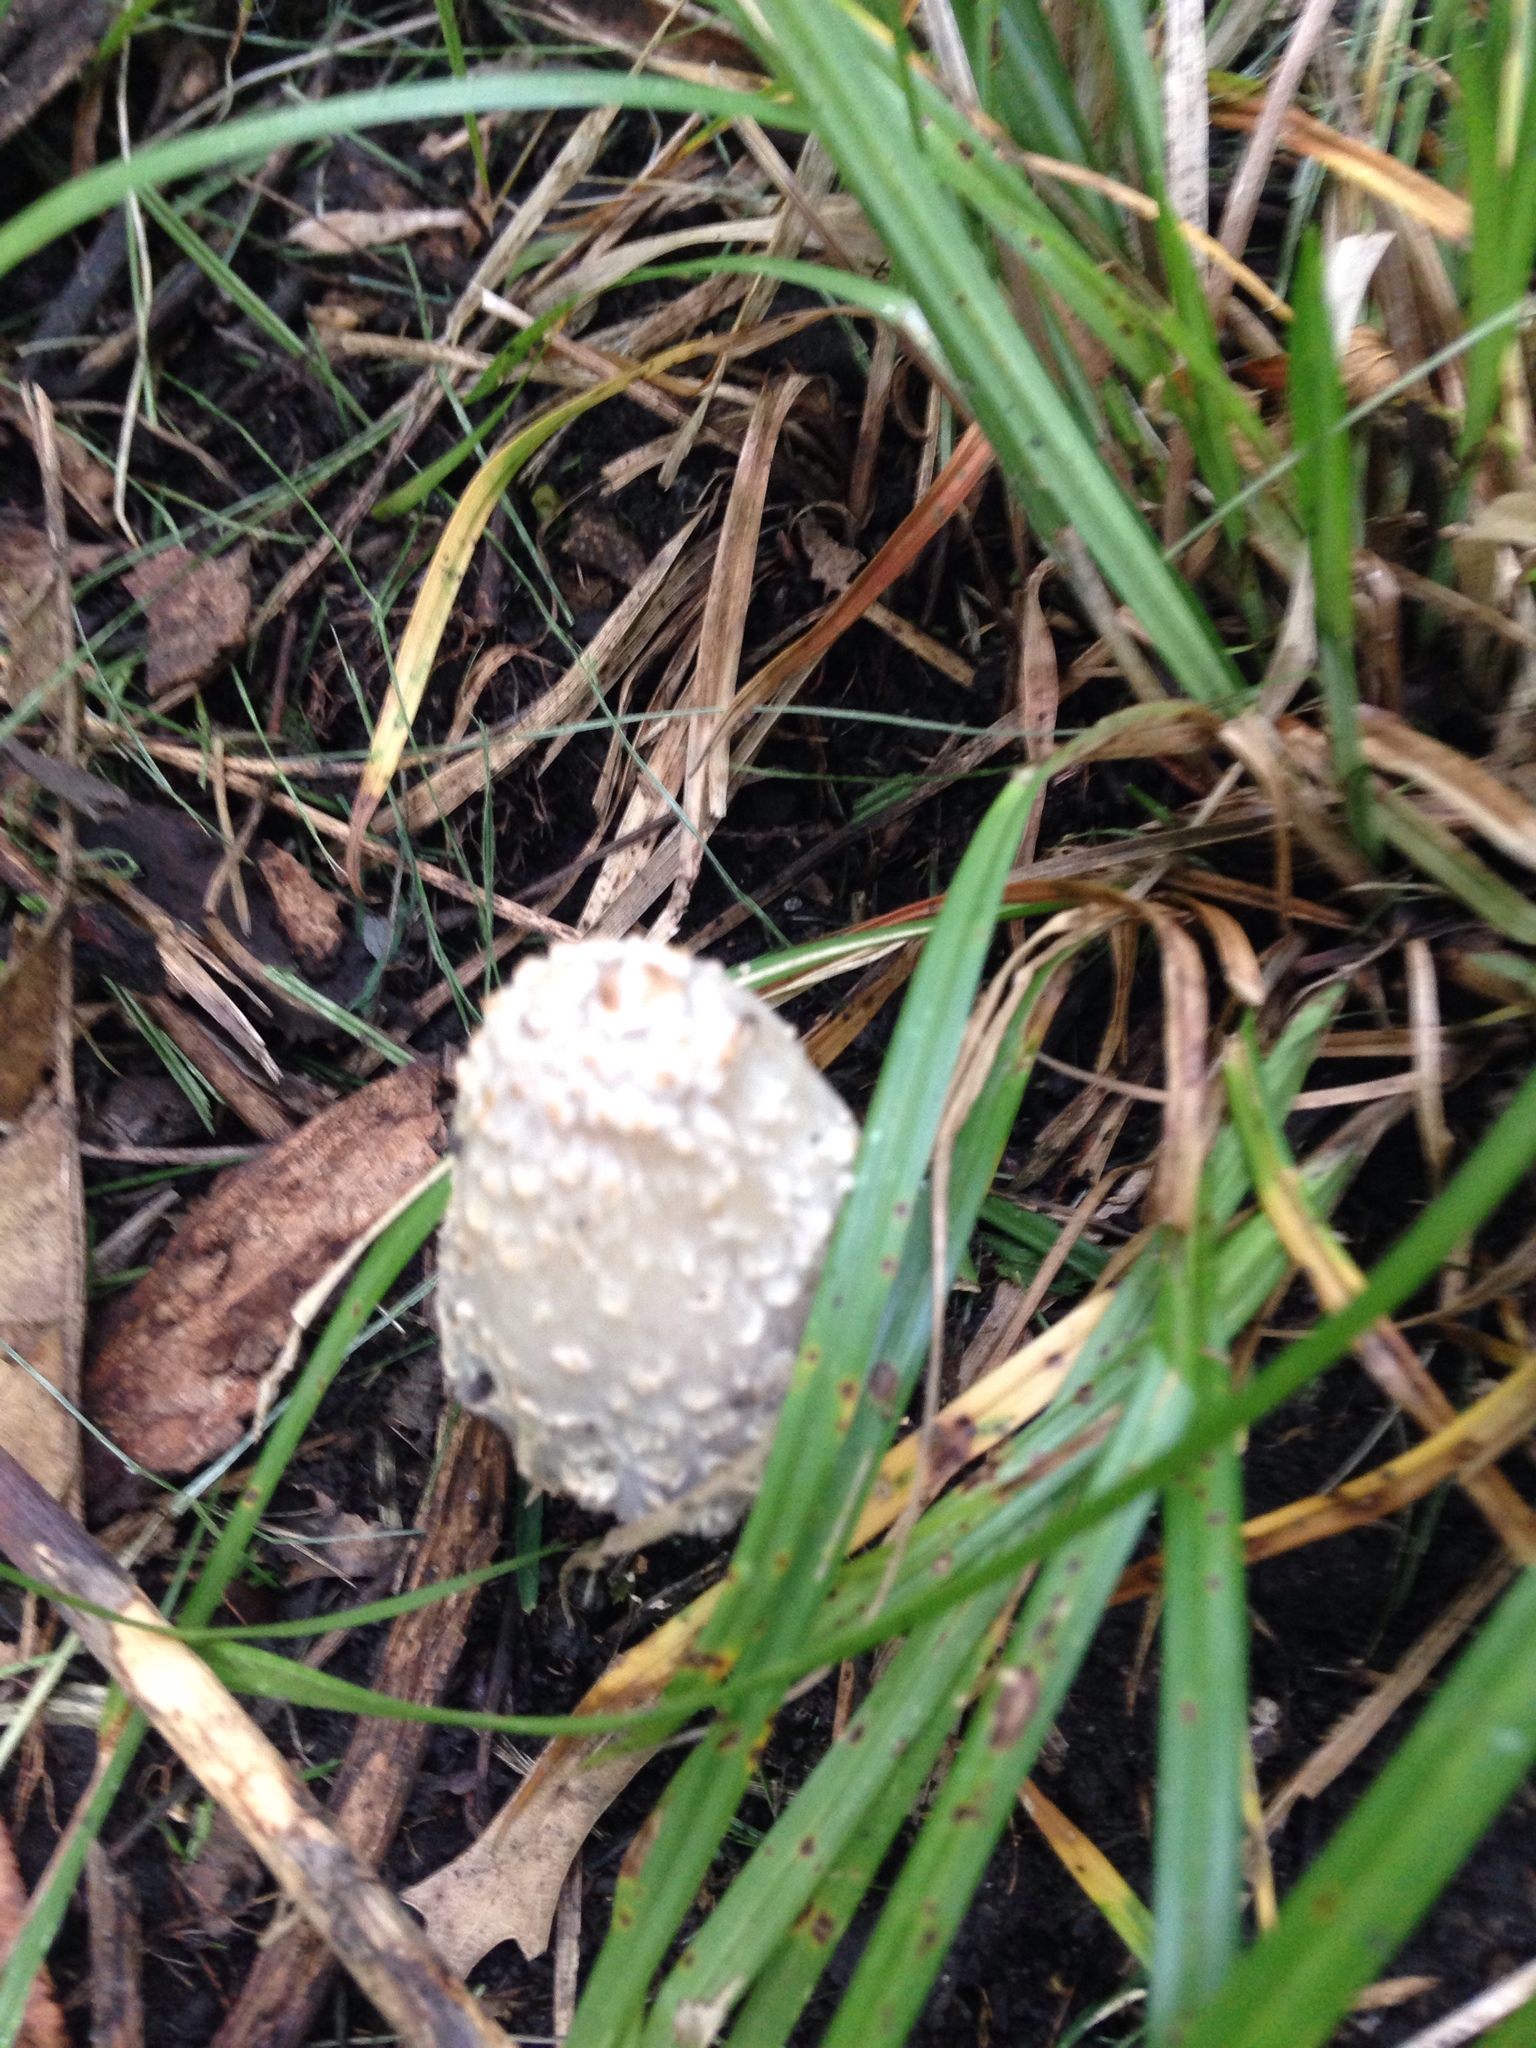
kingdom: Fungi
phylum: Basidiomycota
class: Agaricomycetes
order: Agaricales
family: Agaricaceae
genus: Coprinus
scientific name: Coprinus comatus
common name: Lawyer's wig
